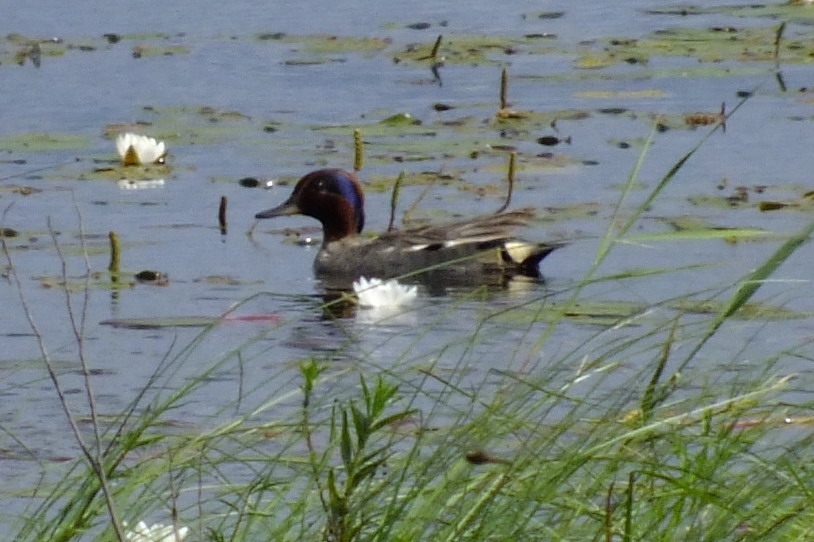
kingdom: Animalia
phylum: Chordata
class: Aves
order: Anseriformes
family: Anatidae
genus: Anas
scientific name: Anas crecca
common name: Eurasian teal
